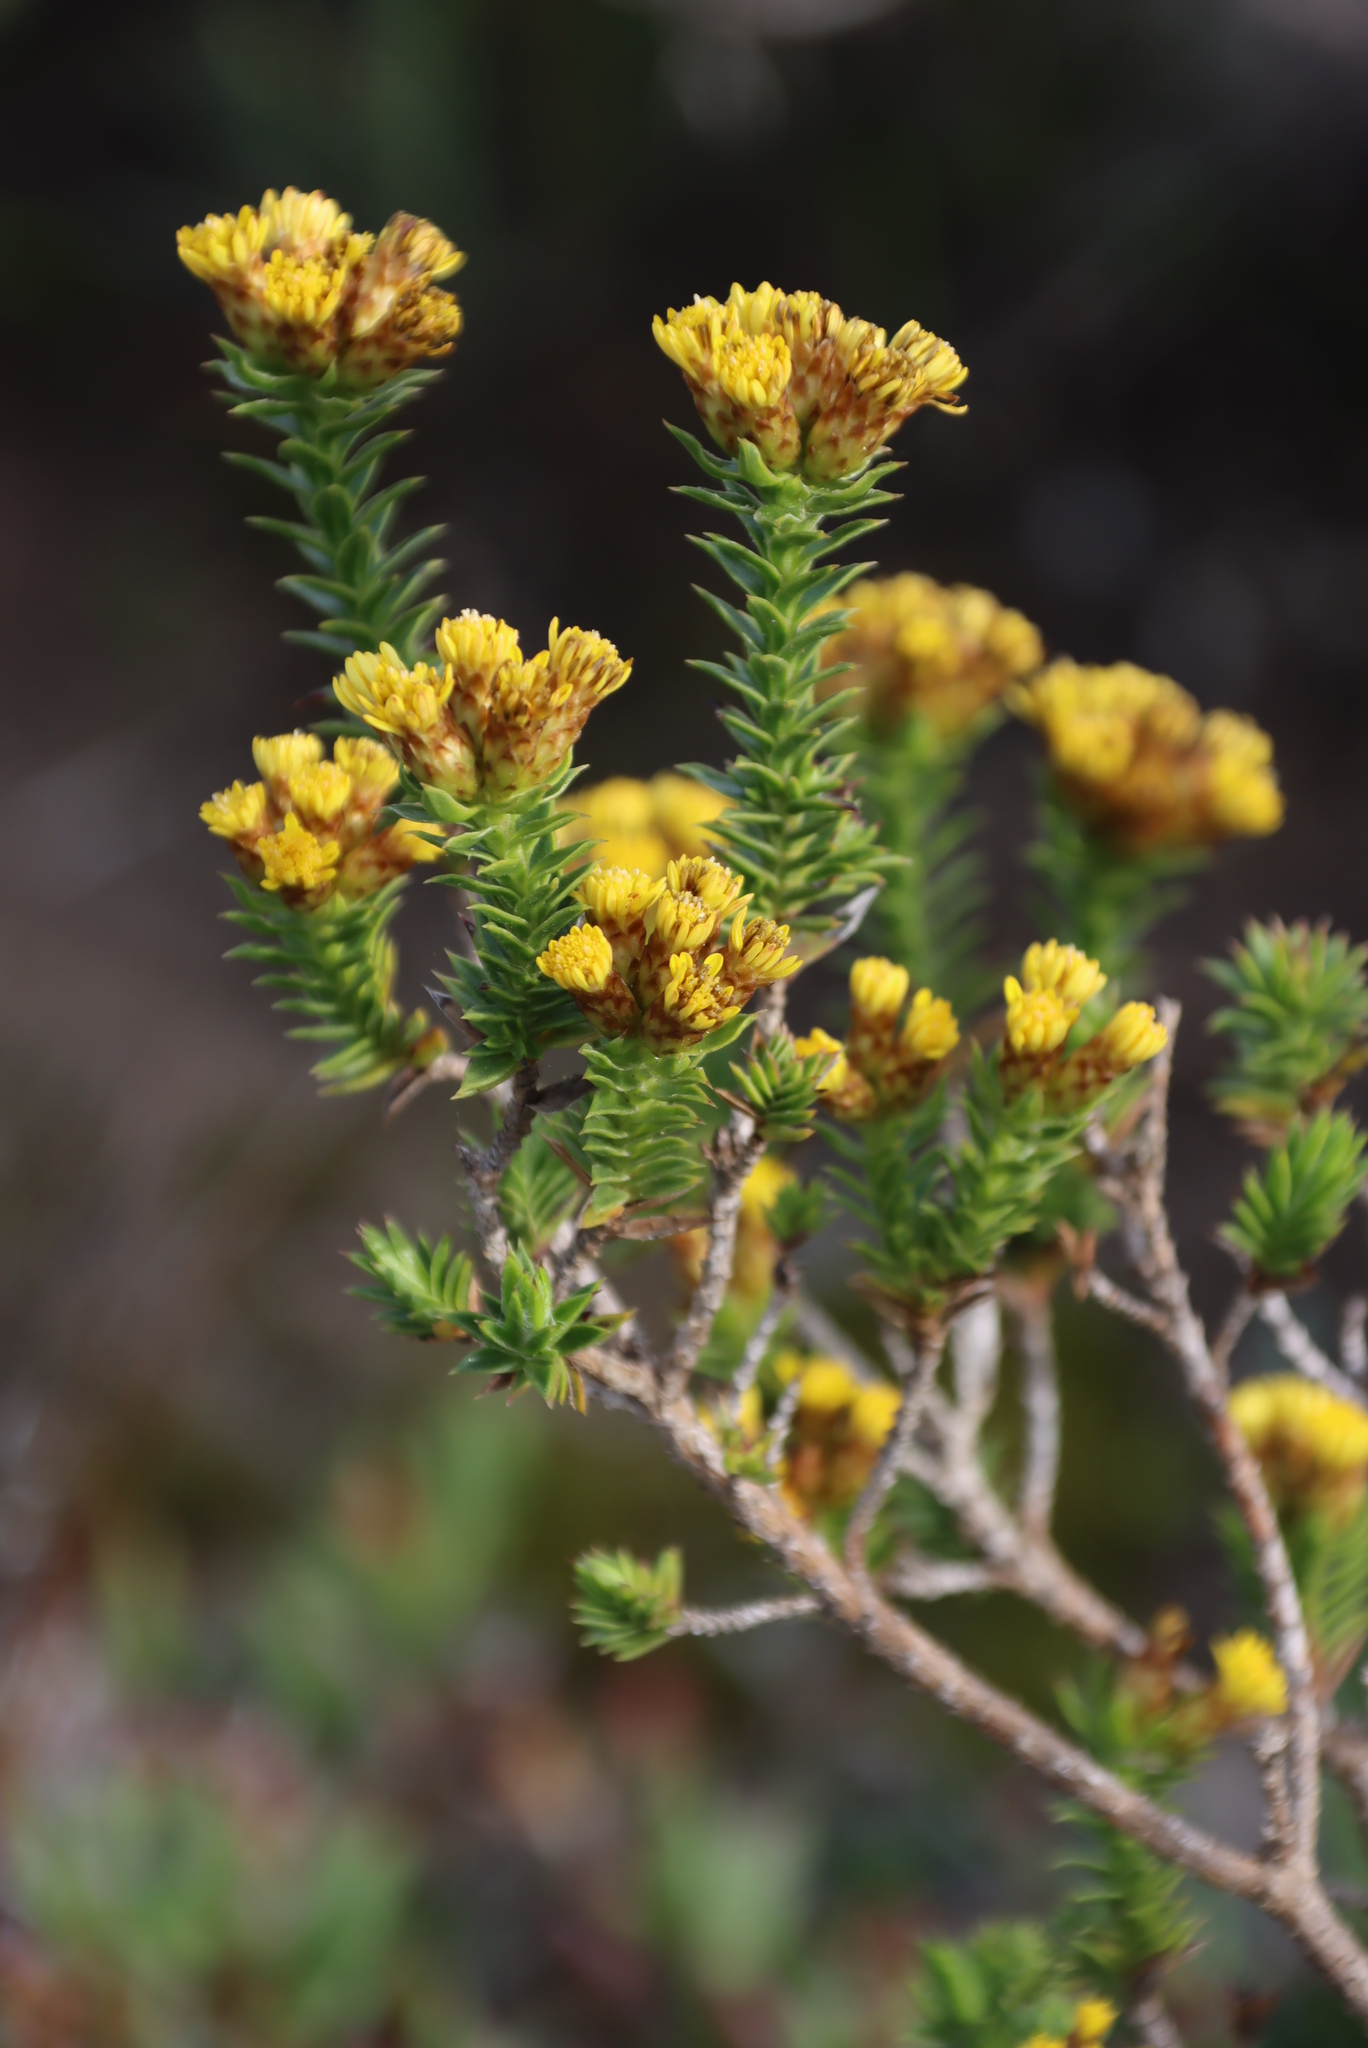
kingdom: Plantae
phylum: Tracheophyta
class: Magnoliopsida
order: Asterales
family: Asteraceae
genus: Oedera
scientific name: Oedera steyniae
